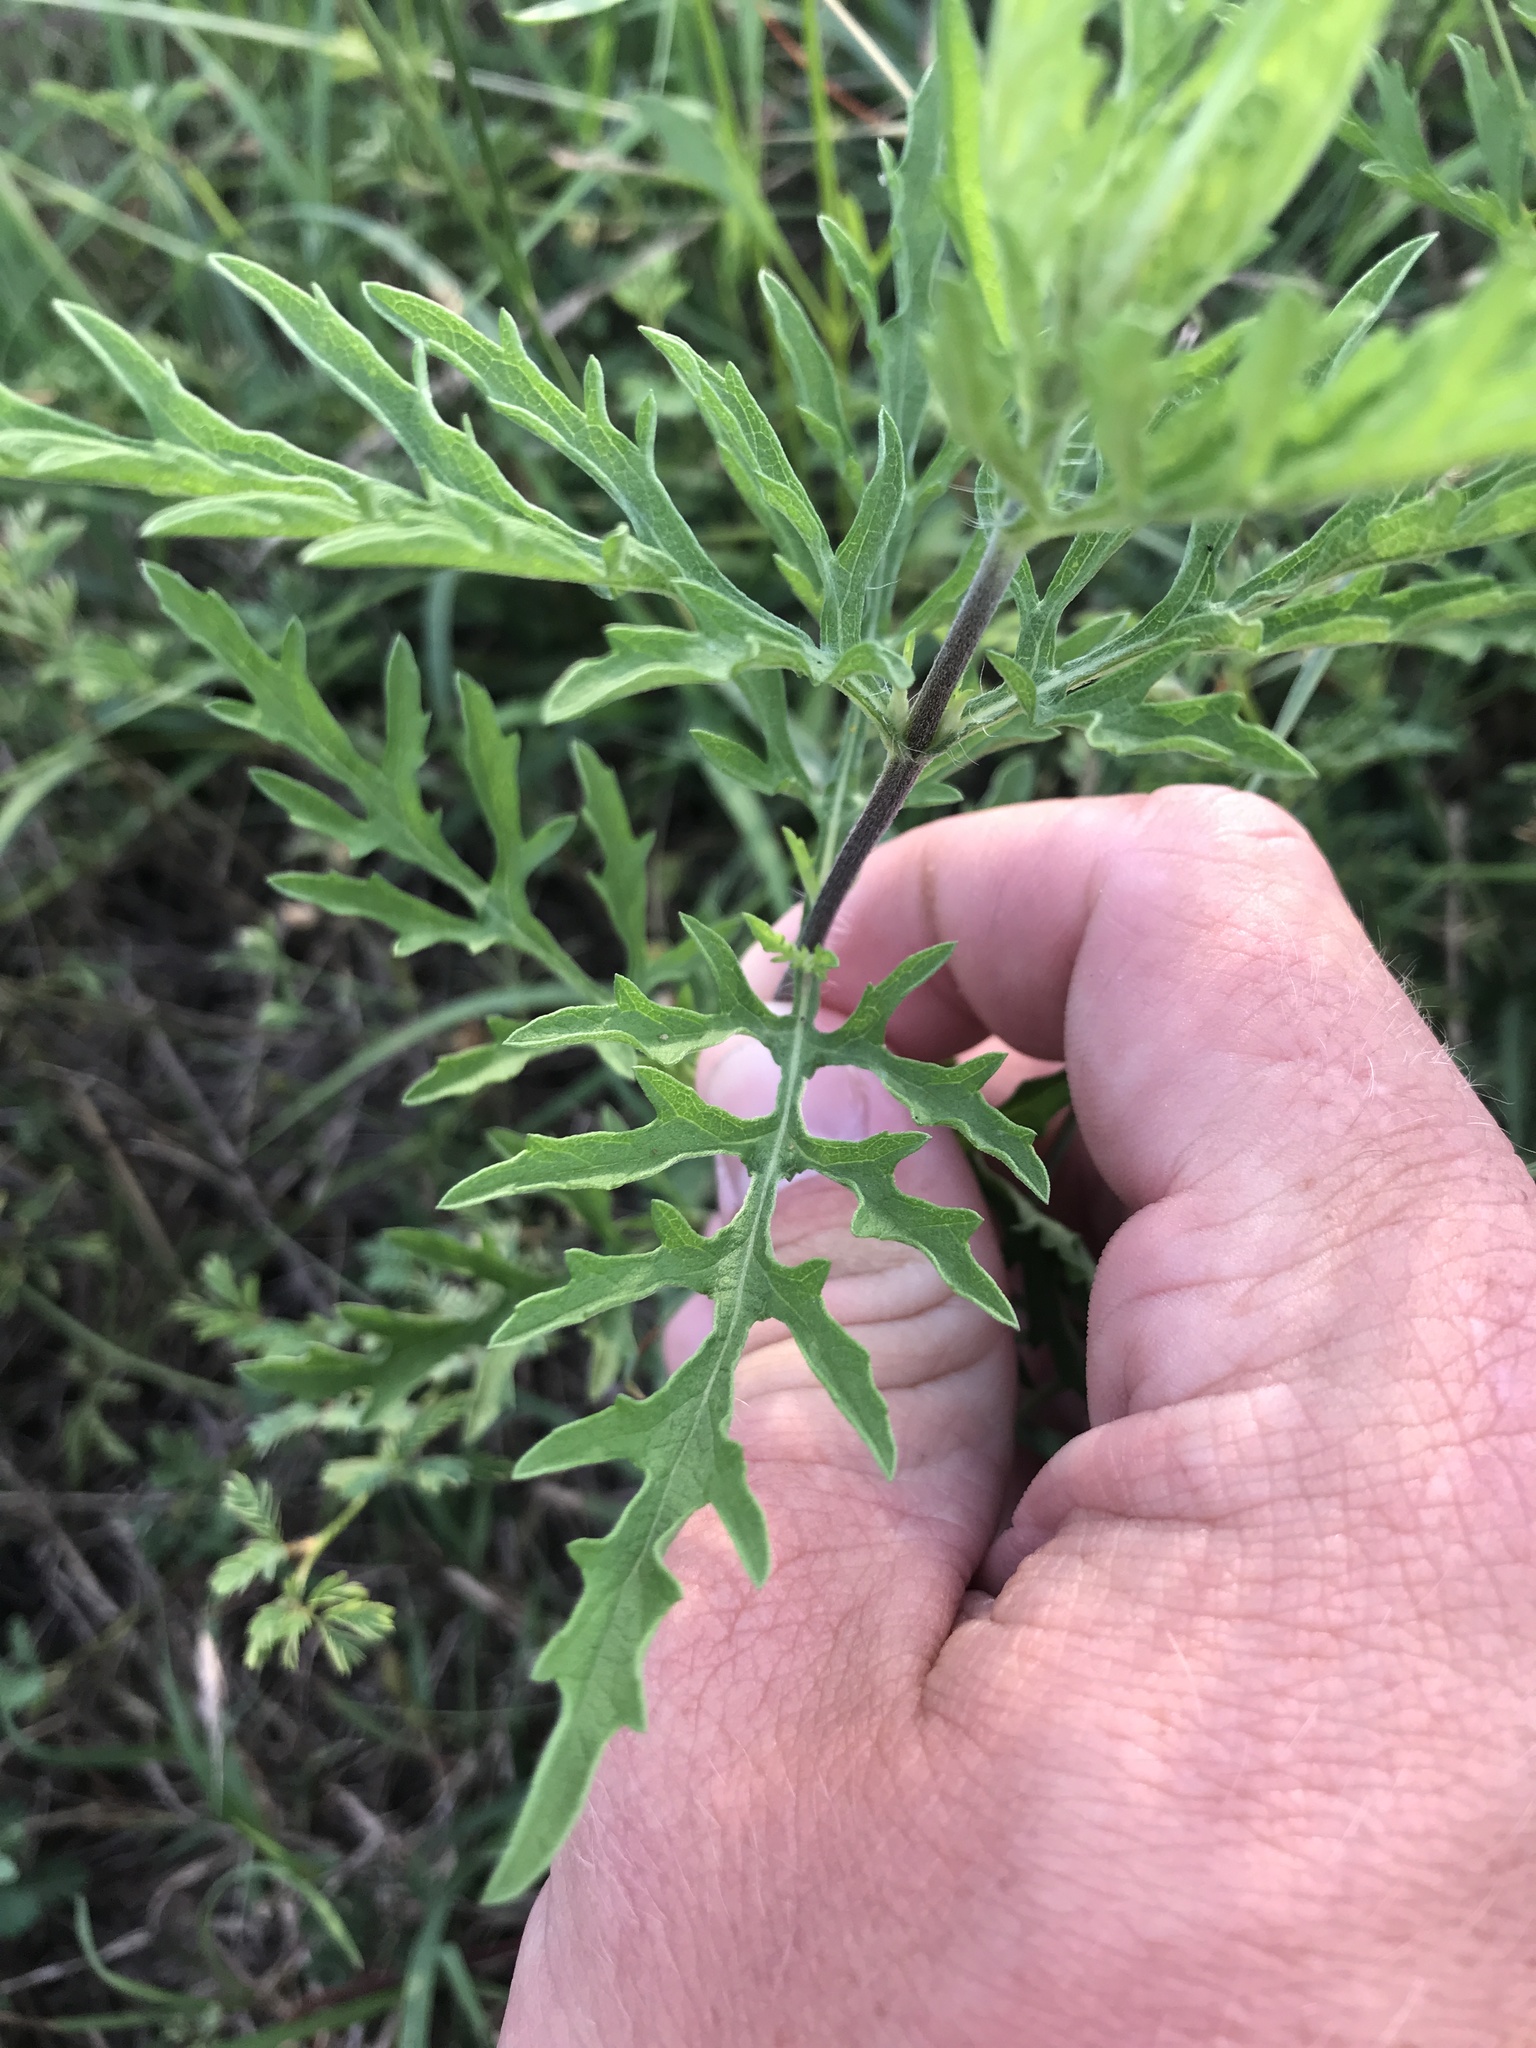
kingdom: Plantae
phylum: Tracheophyta
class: Magnoliopsida
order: Asterales
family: Asteraceae
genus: Ambrosia
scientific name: Ambrosia psilostachya
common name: Perennial ragweed
